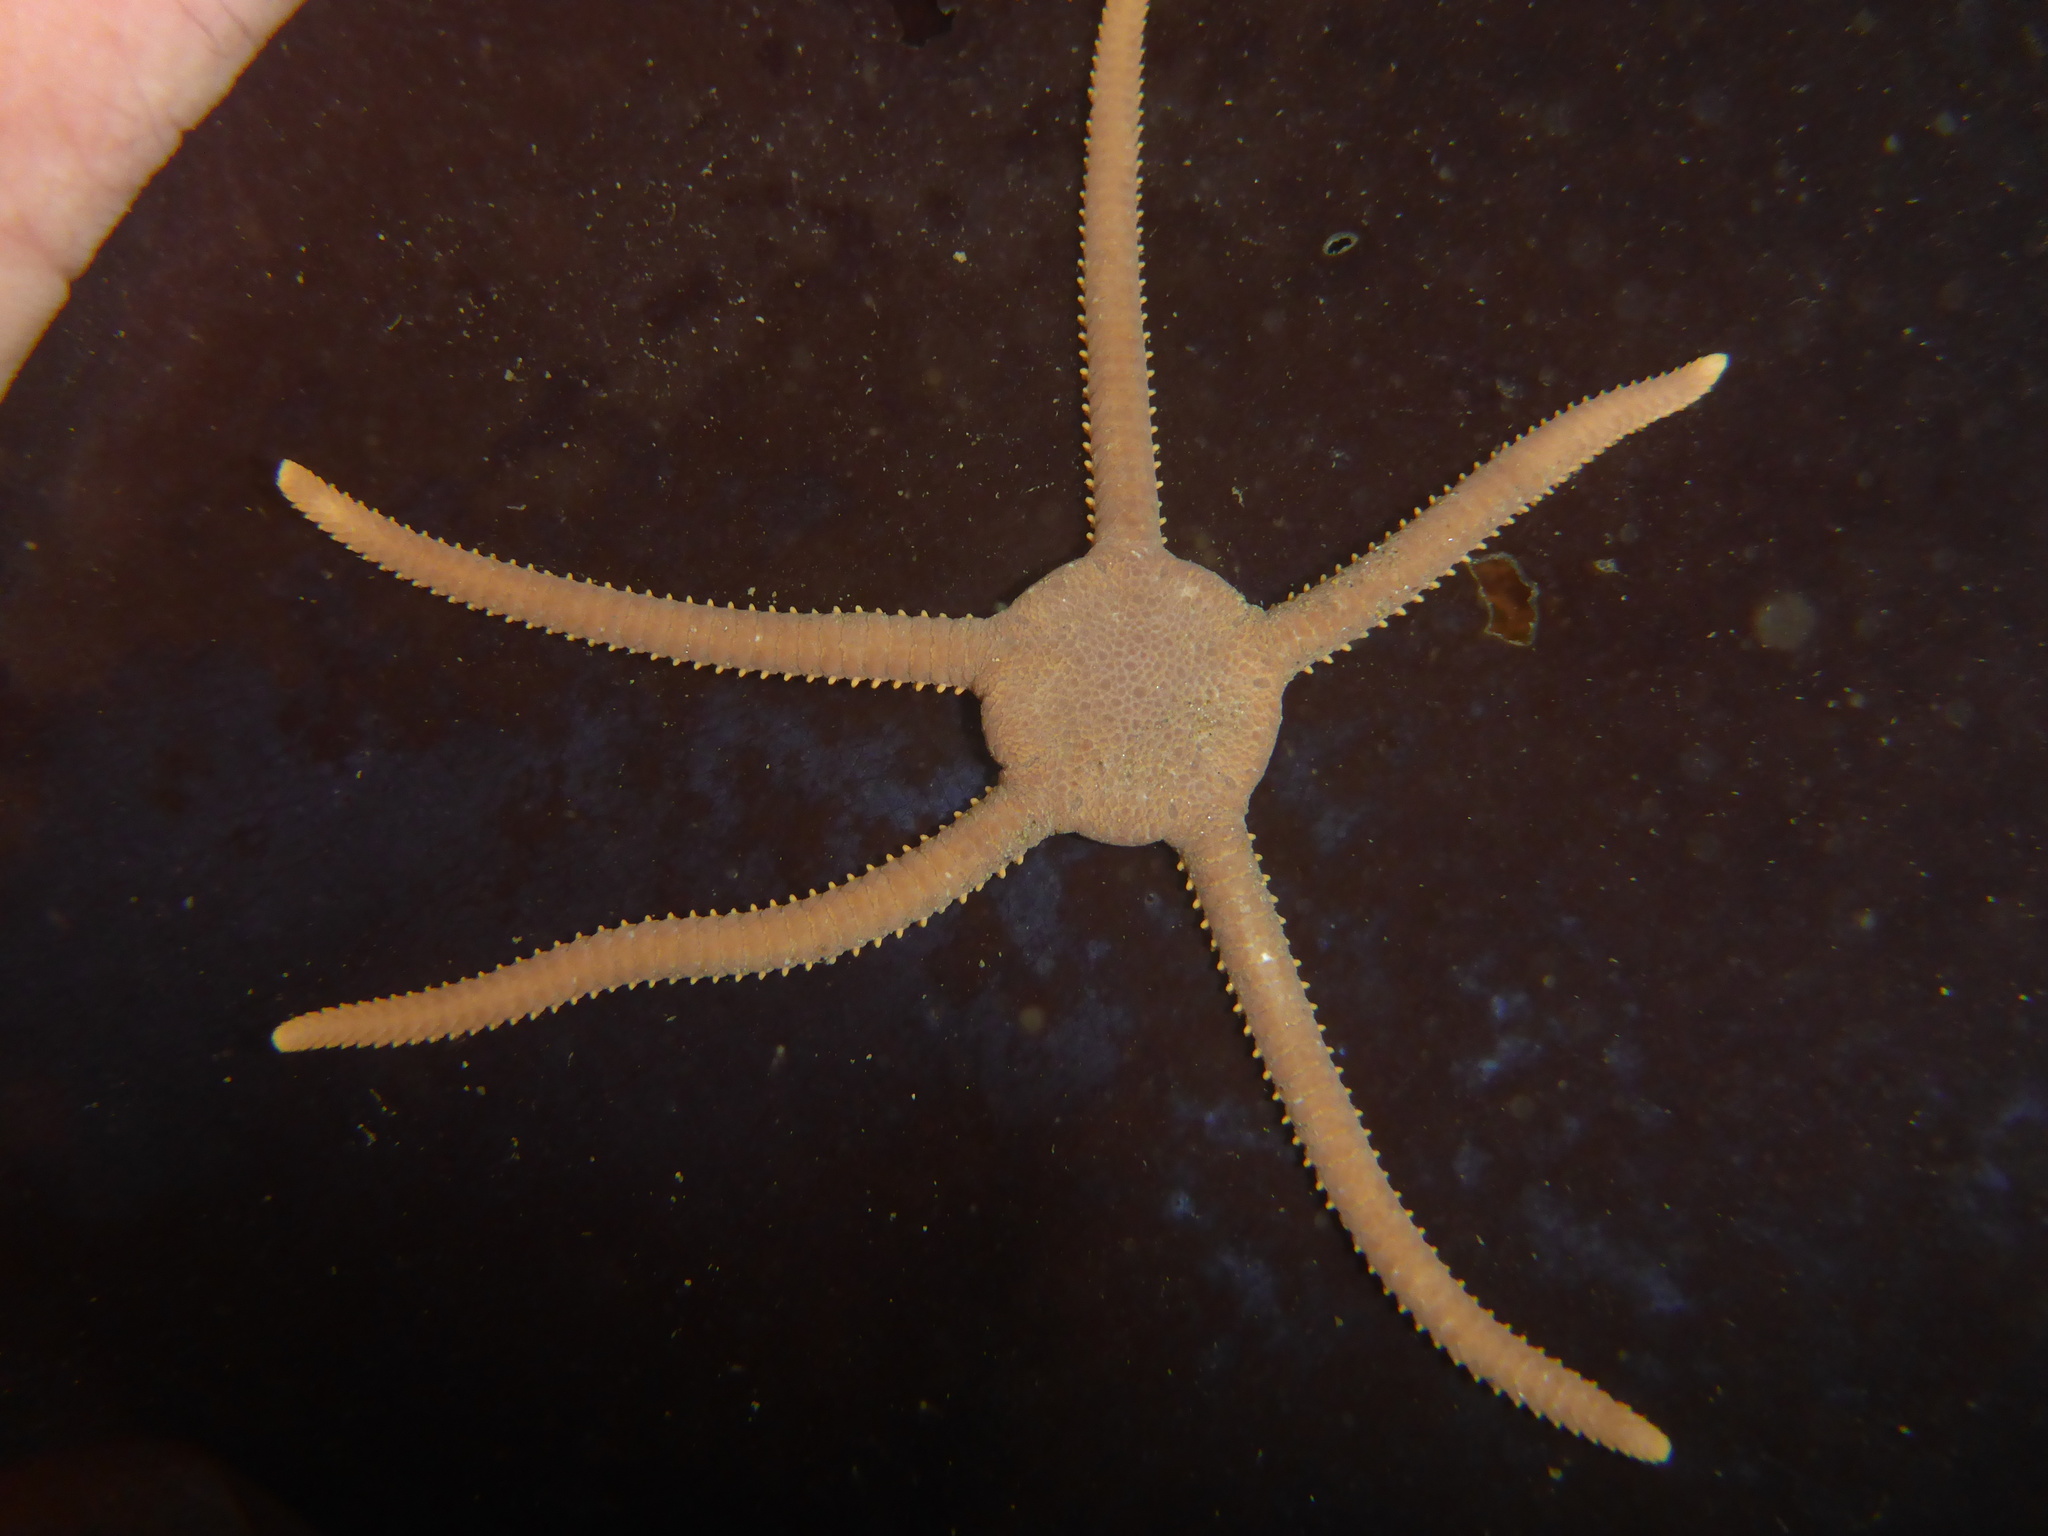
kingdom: Animalia
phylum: Echinodermata
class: Ophiuroidea
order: Amphilepidida
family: Hemieuryalidae
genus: Ophioplocus
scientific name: Ophioplocus esmarki
